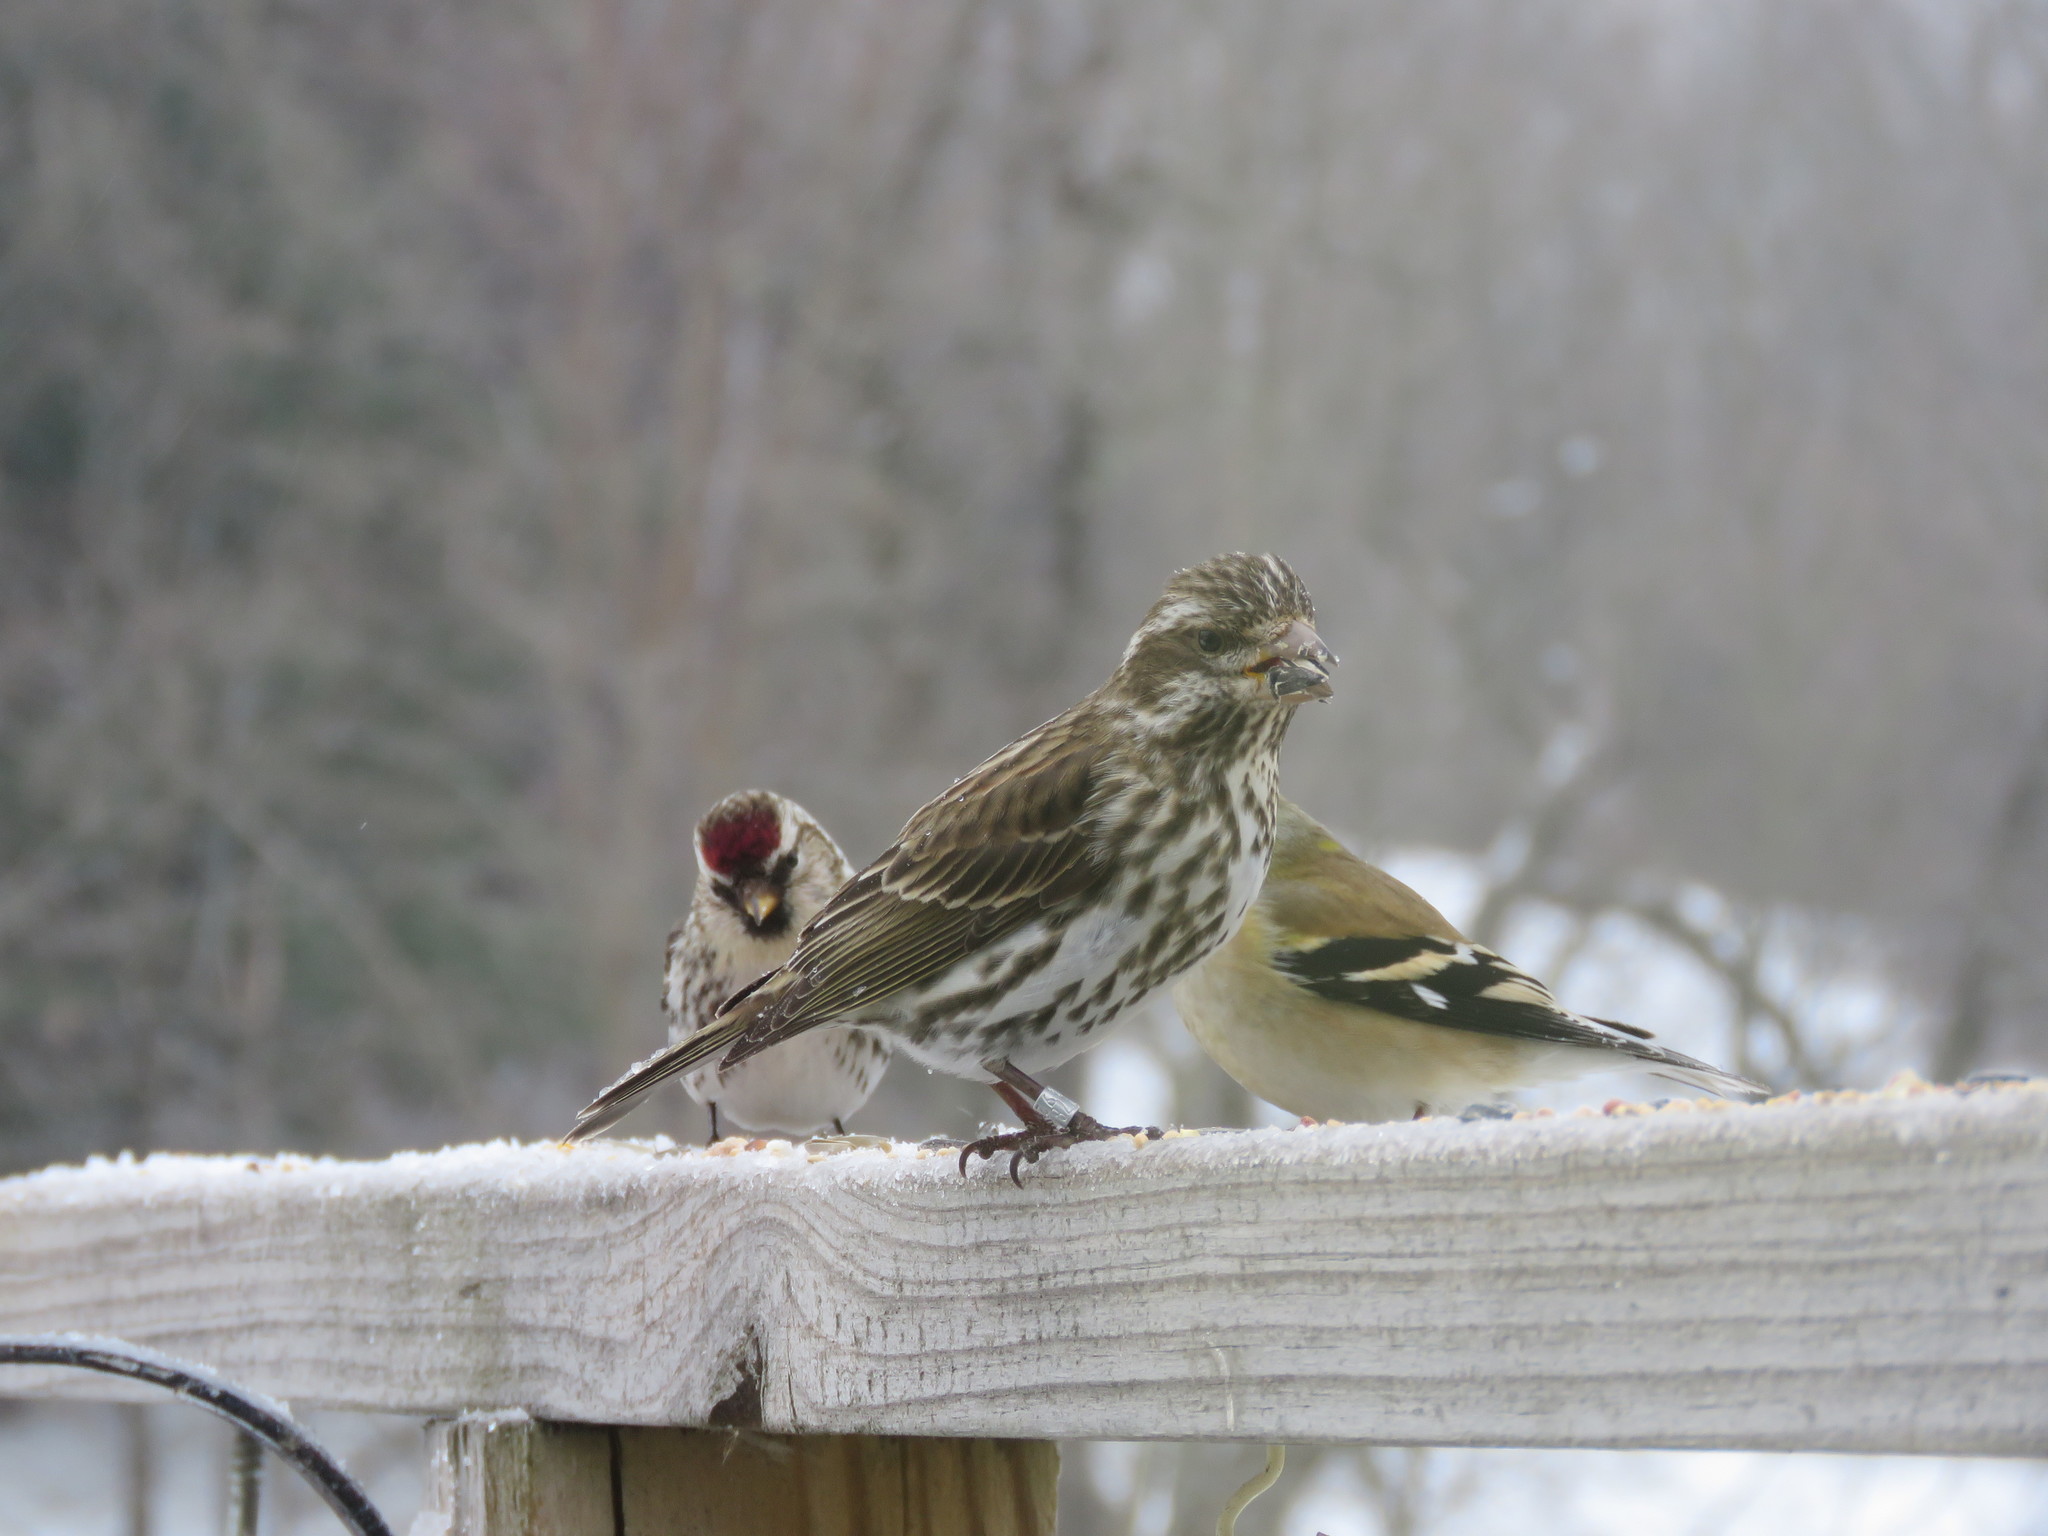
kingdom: Animalia
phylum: Chordata
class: Aves
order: Passeriformes
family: Fringillidae
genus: Haemorhous
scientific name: Haemorhous purpureus
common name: Purple finch
